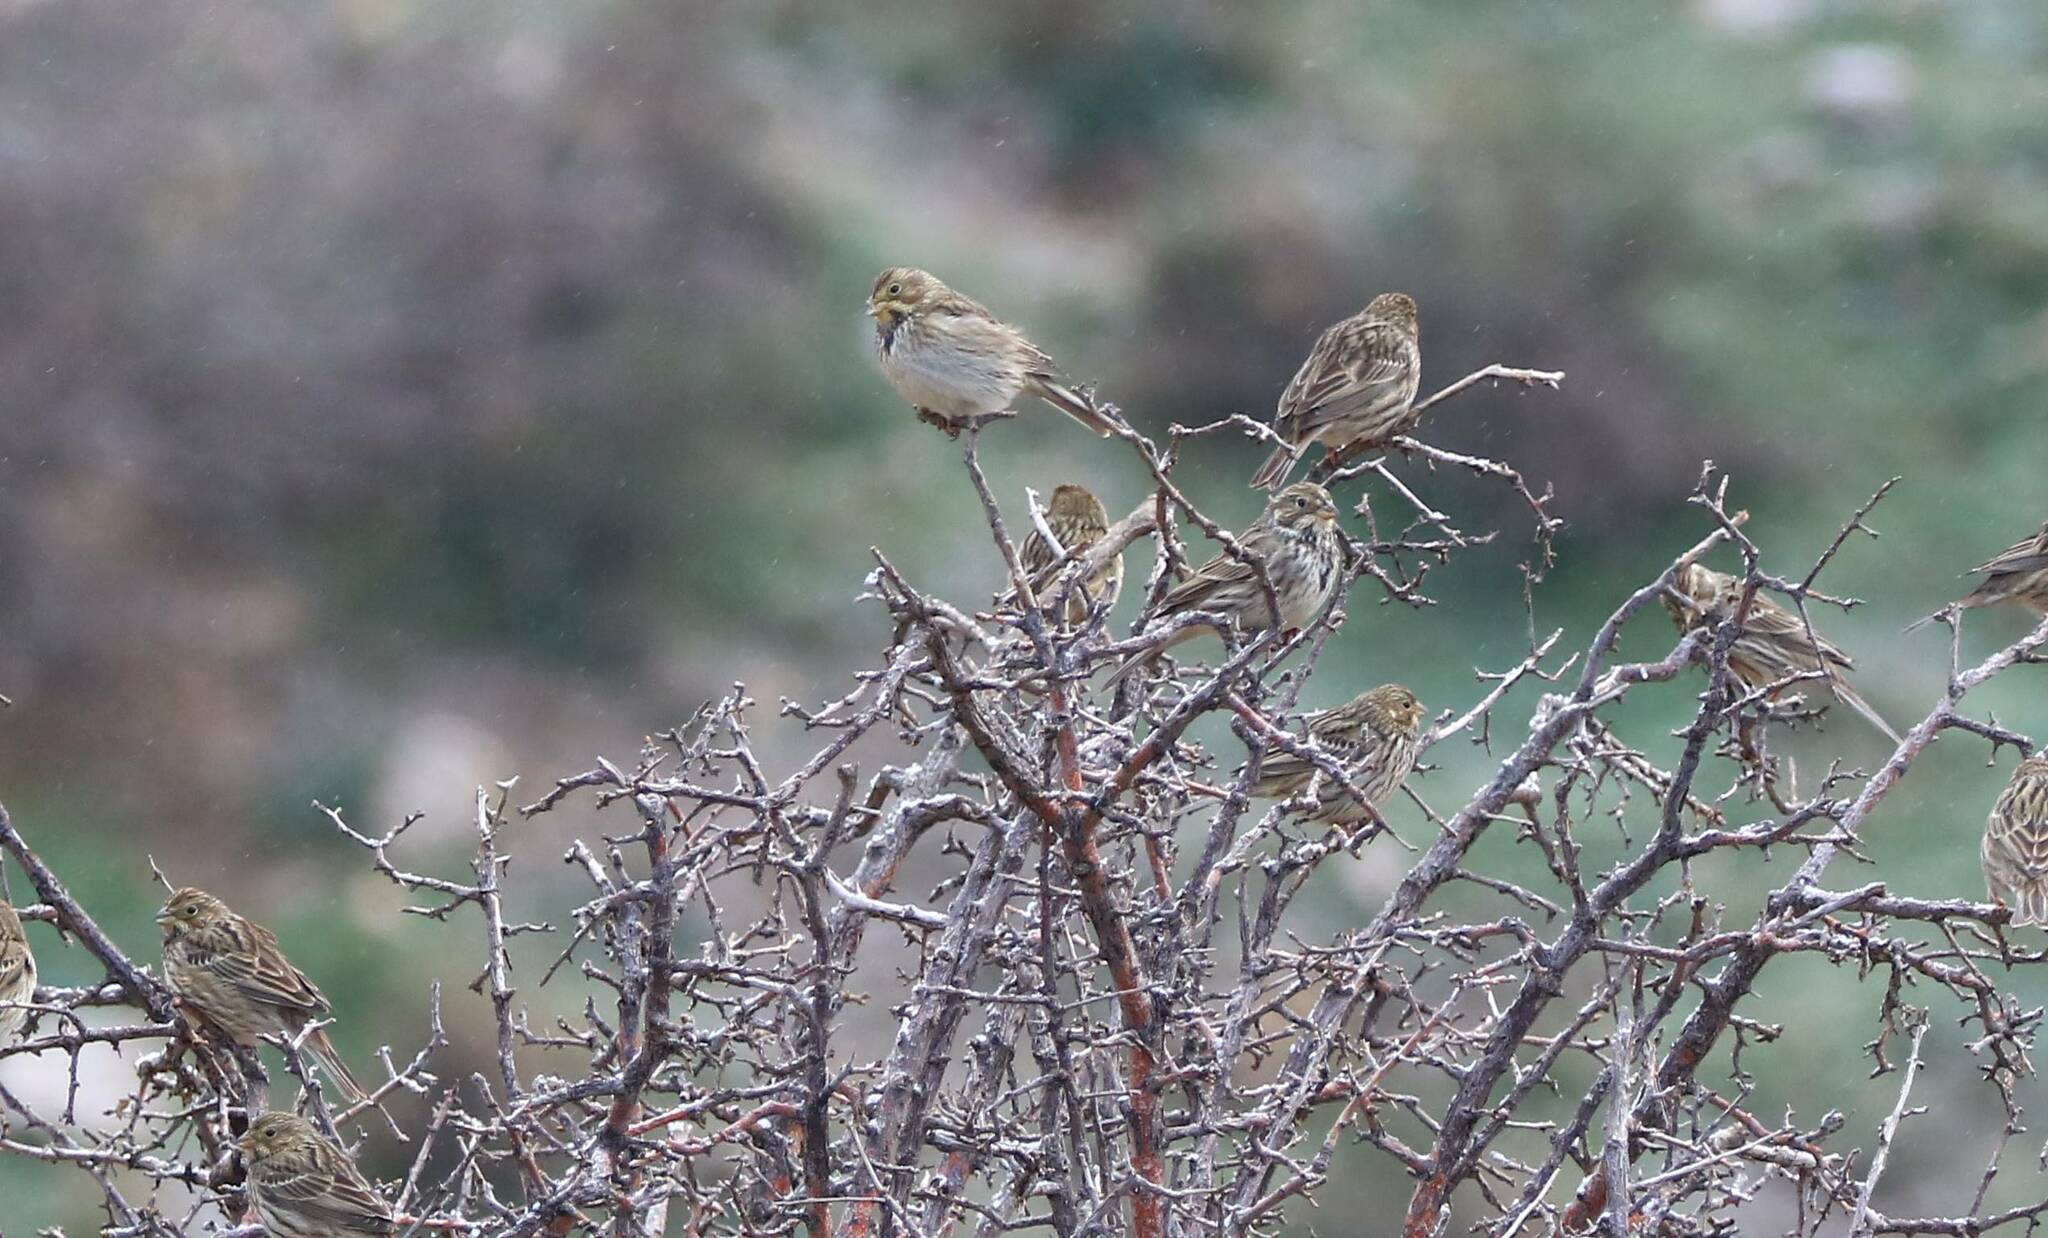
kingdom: Animalia
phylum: Chordata
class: Aves
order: Passeriformes
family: Emberizidae
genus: Emberiza
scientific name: Emberiza calandra
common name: Corn bunting
